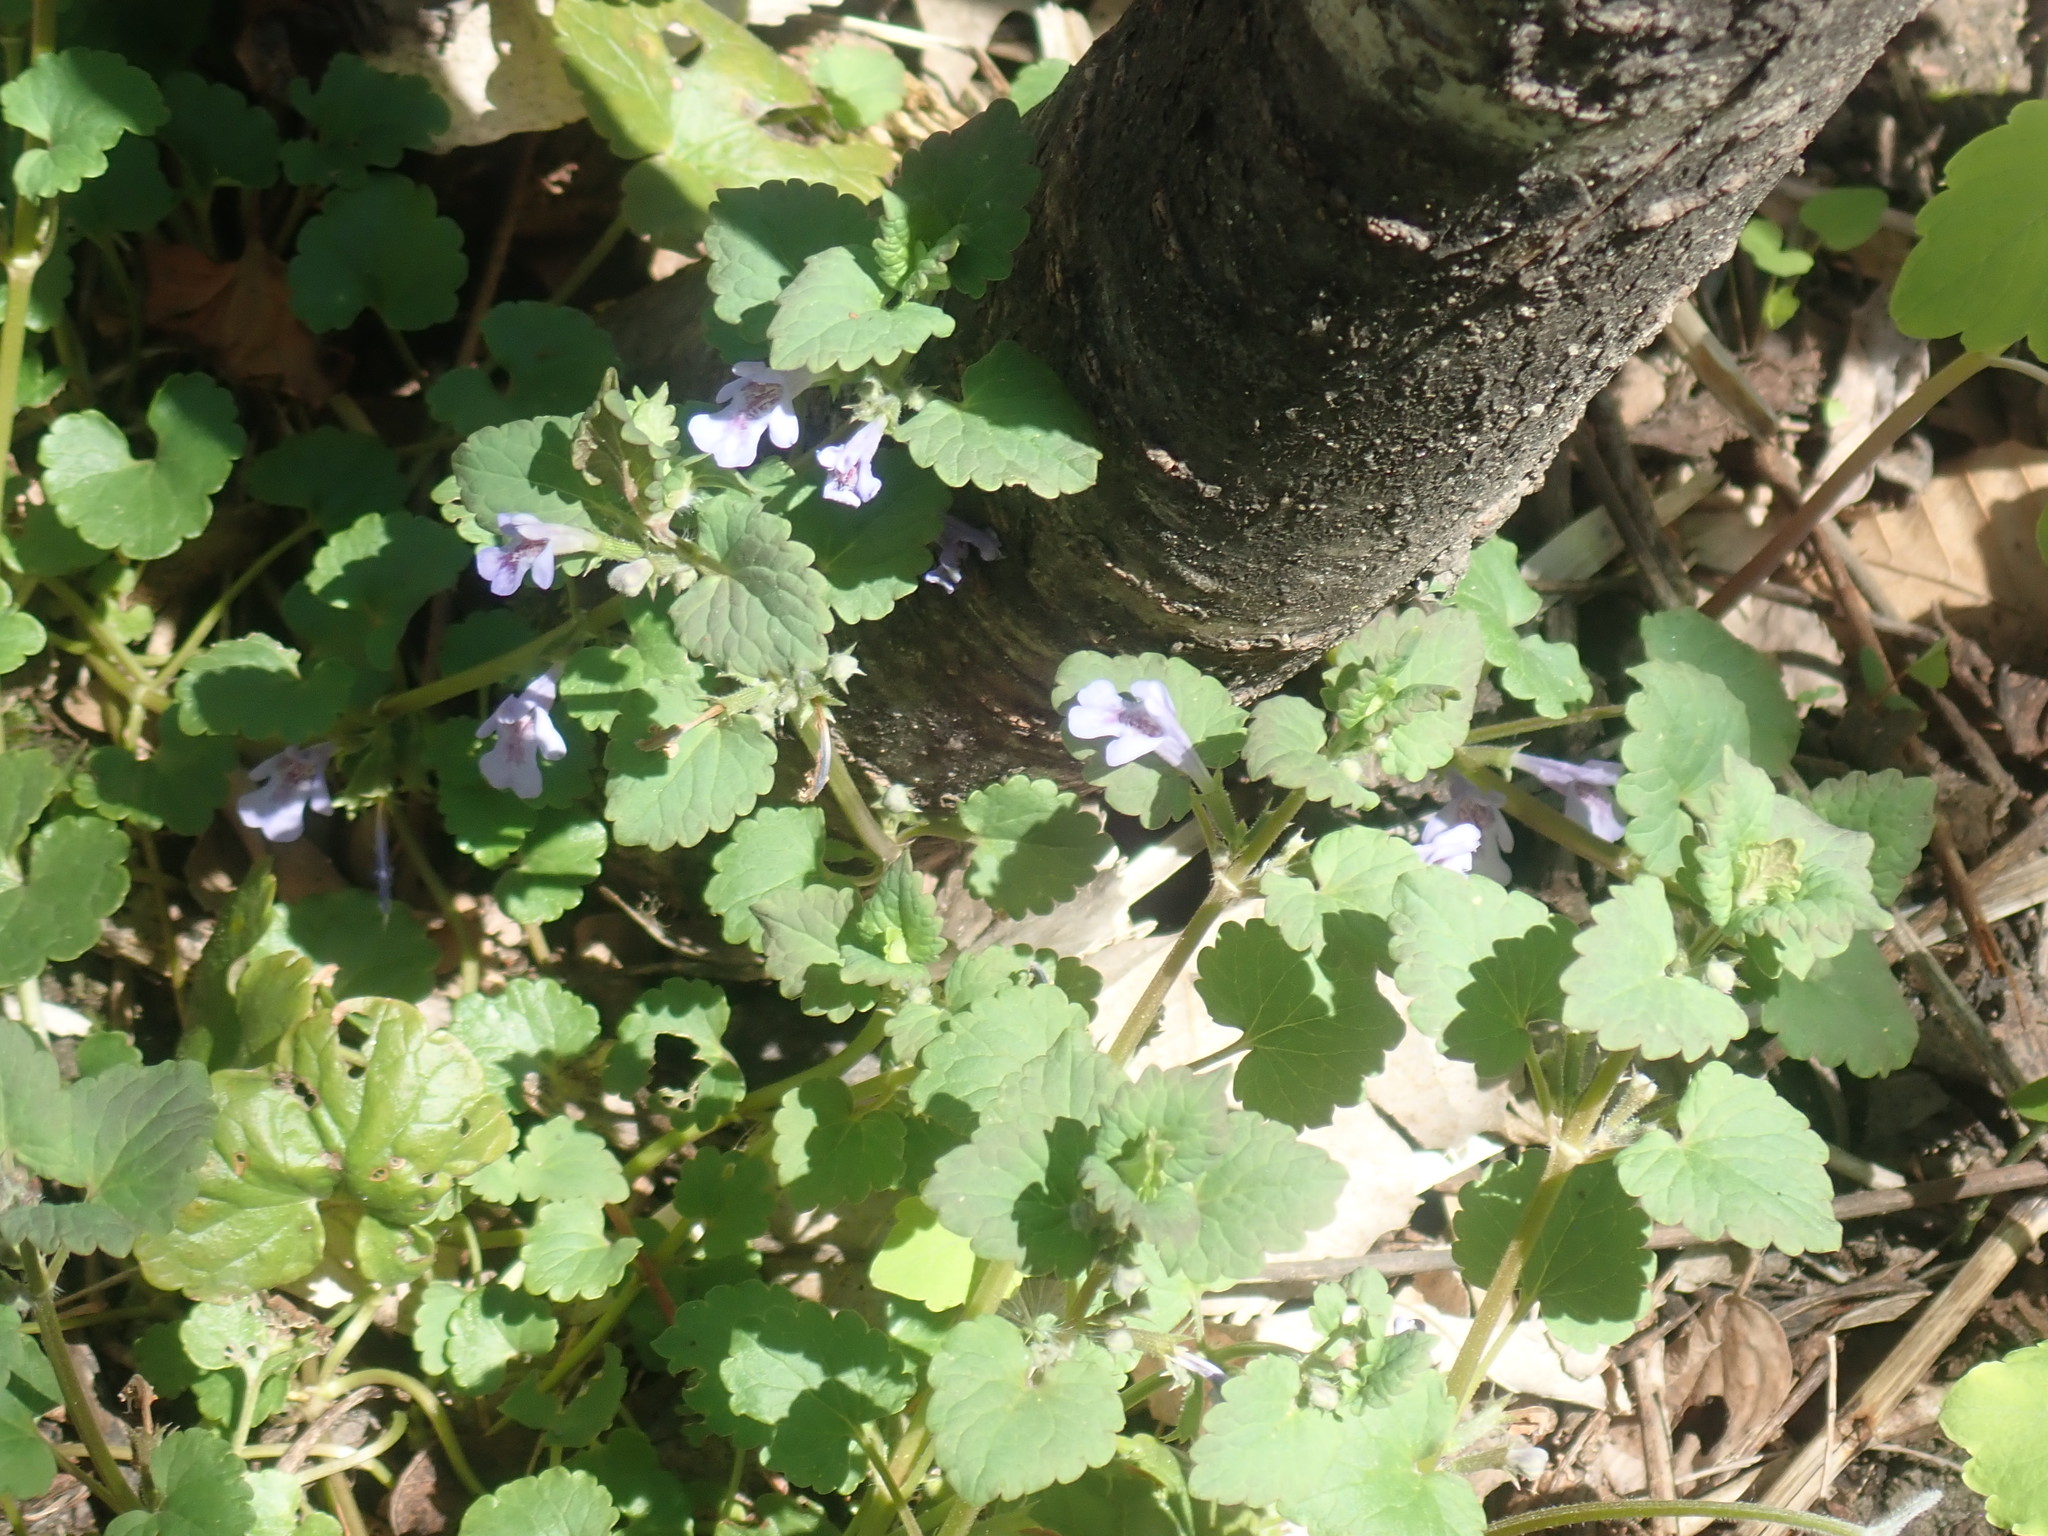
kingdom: Plantae
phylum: Tracheophyta
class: Magnoliopsida
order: Lamiales
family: Lamiaceae
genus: Glechoma
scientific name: Glechoma hederacea
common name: Ground ivy
